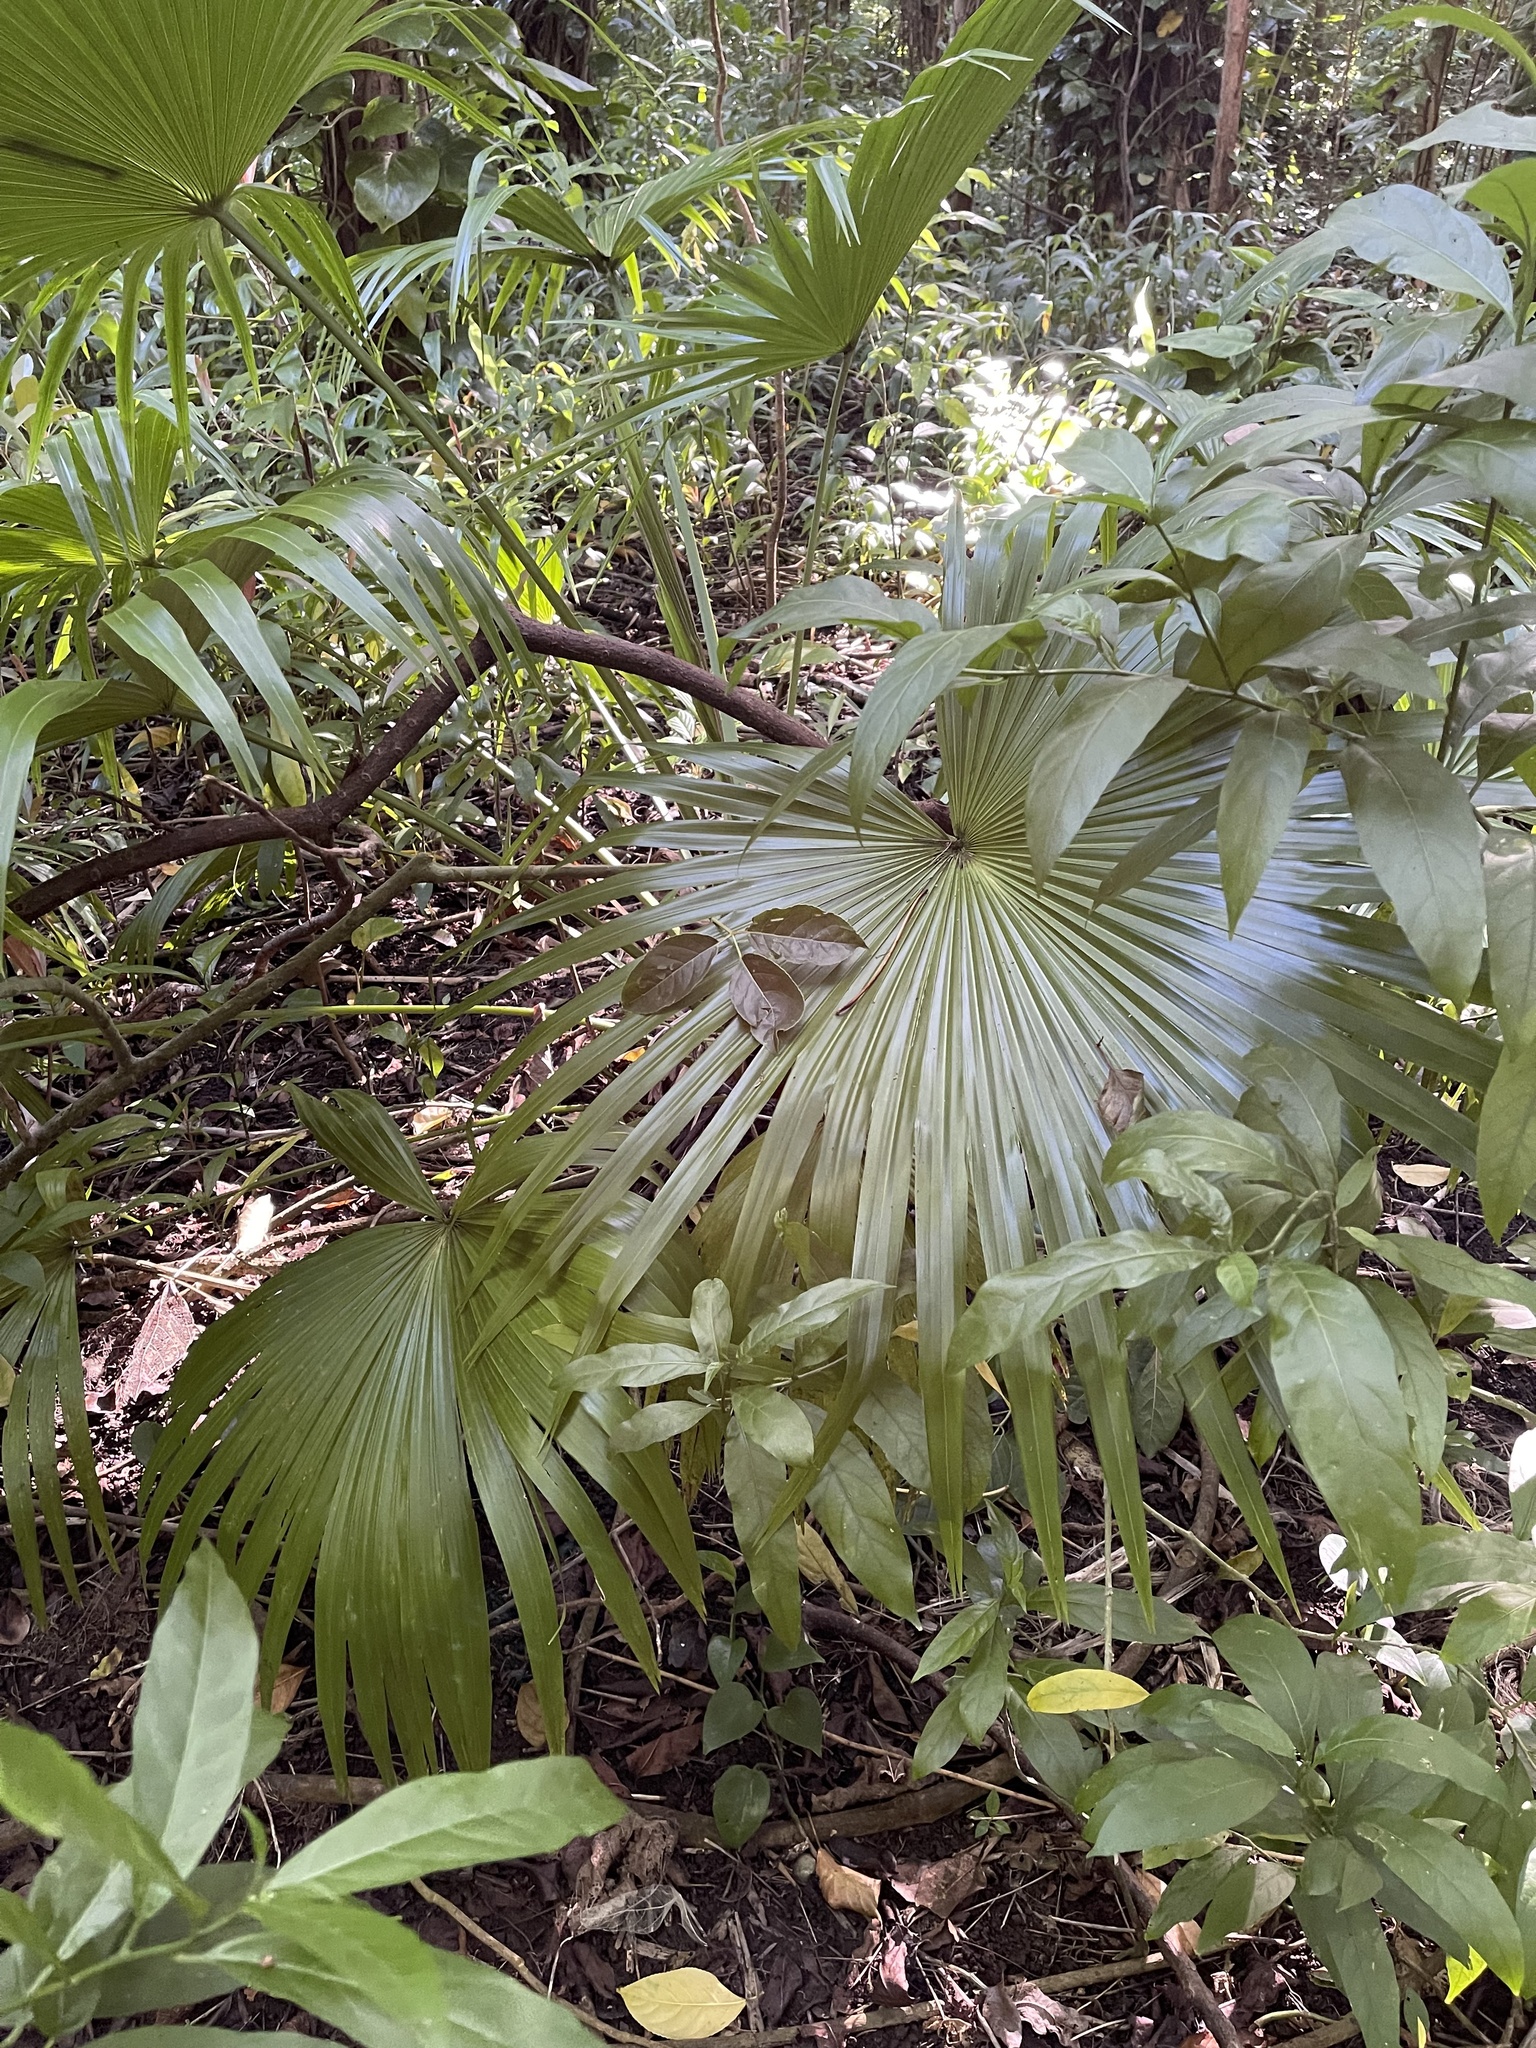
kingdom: Plantae
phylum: Tracheophyta
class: Liliopsida
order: Arecales
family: Arecaceae
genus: Livistona
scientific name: Livistona chinensis
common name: Fountain palm
